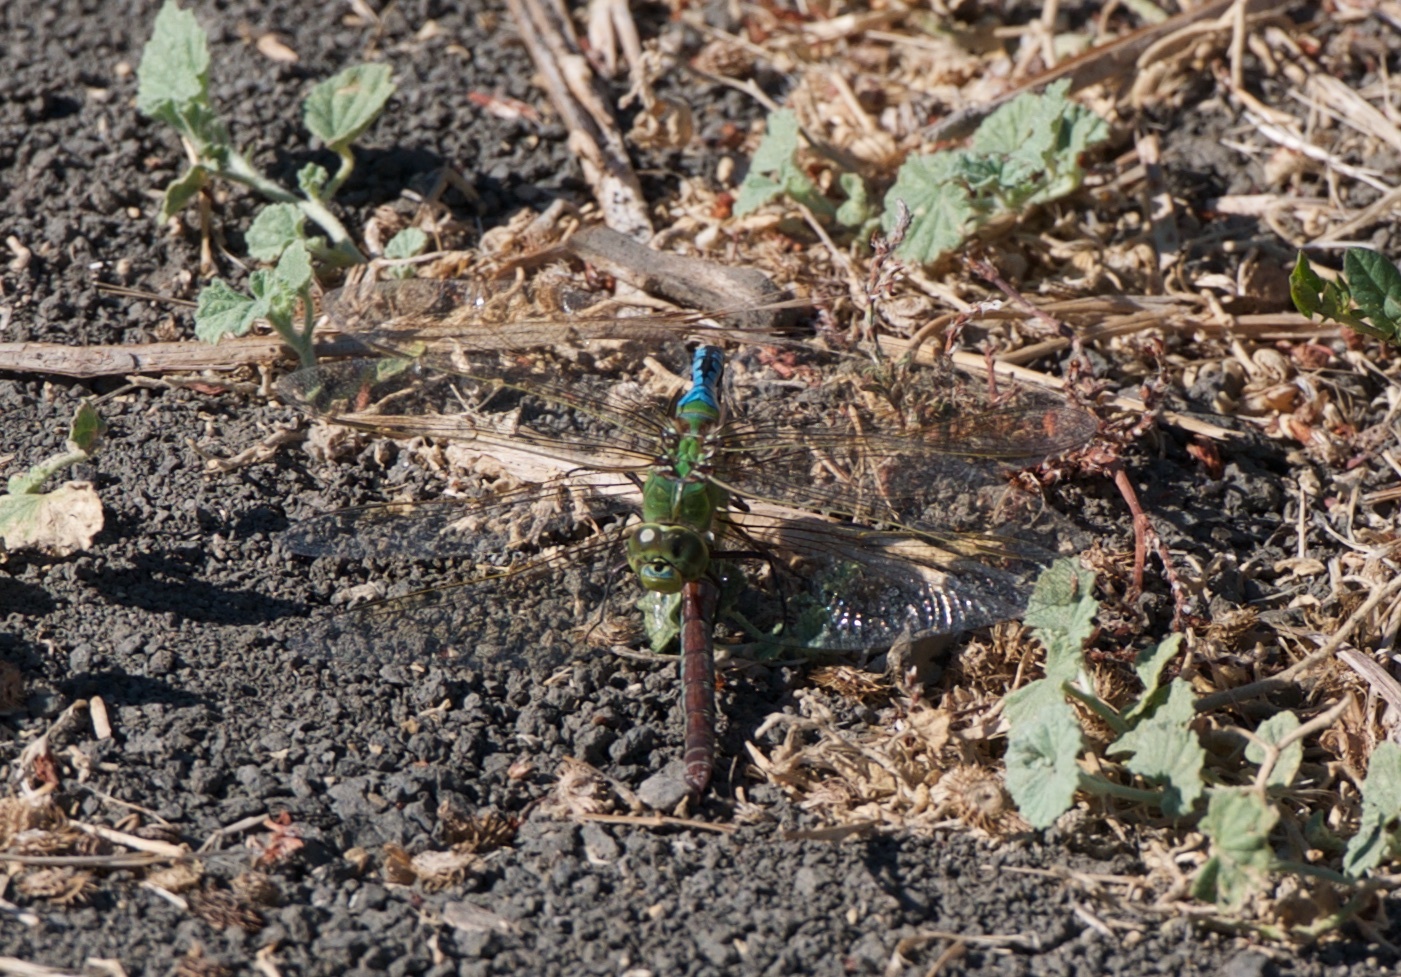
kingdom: Animalia
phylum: Arthropoda
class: Insecta
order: Odonata
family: Aeshnidae
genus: Anax
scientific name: Anax junius
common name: Common green darner
